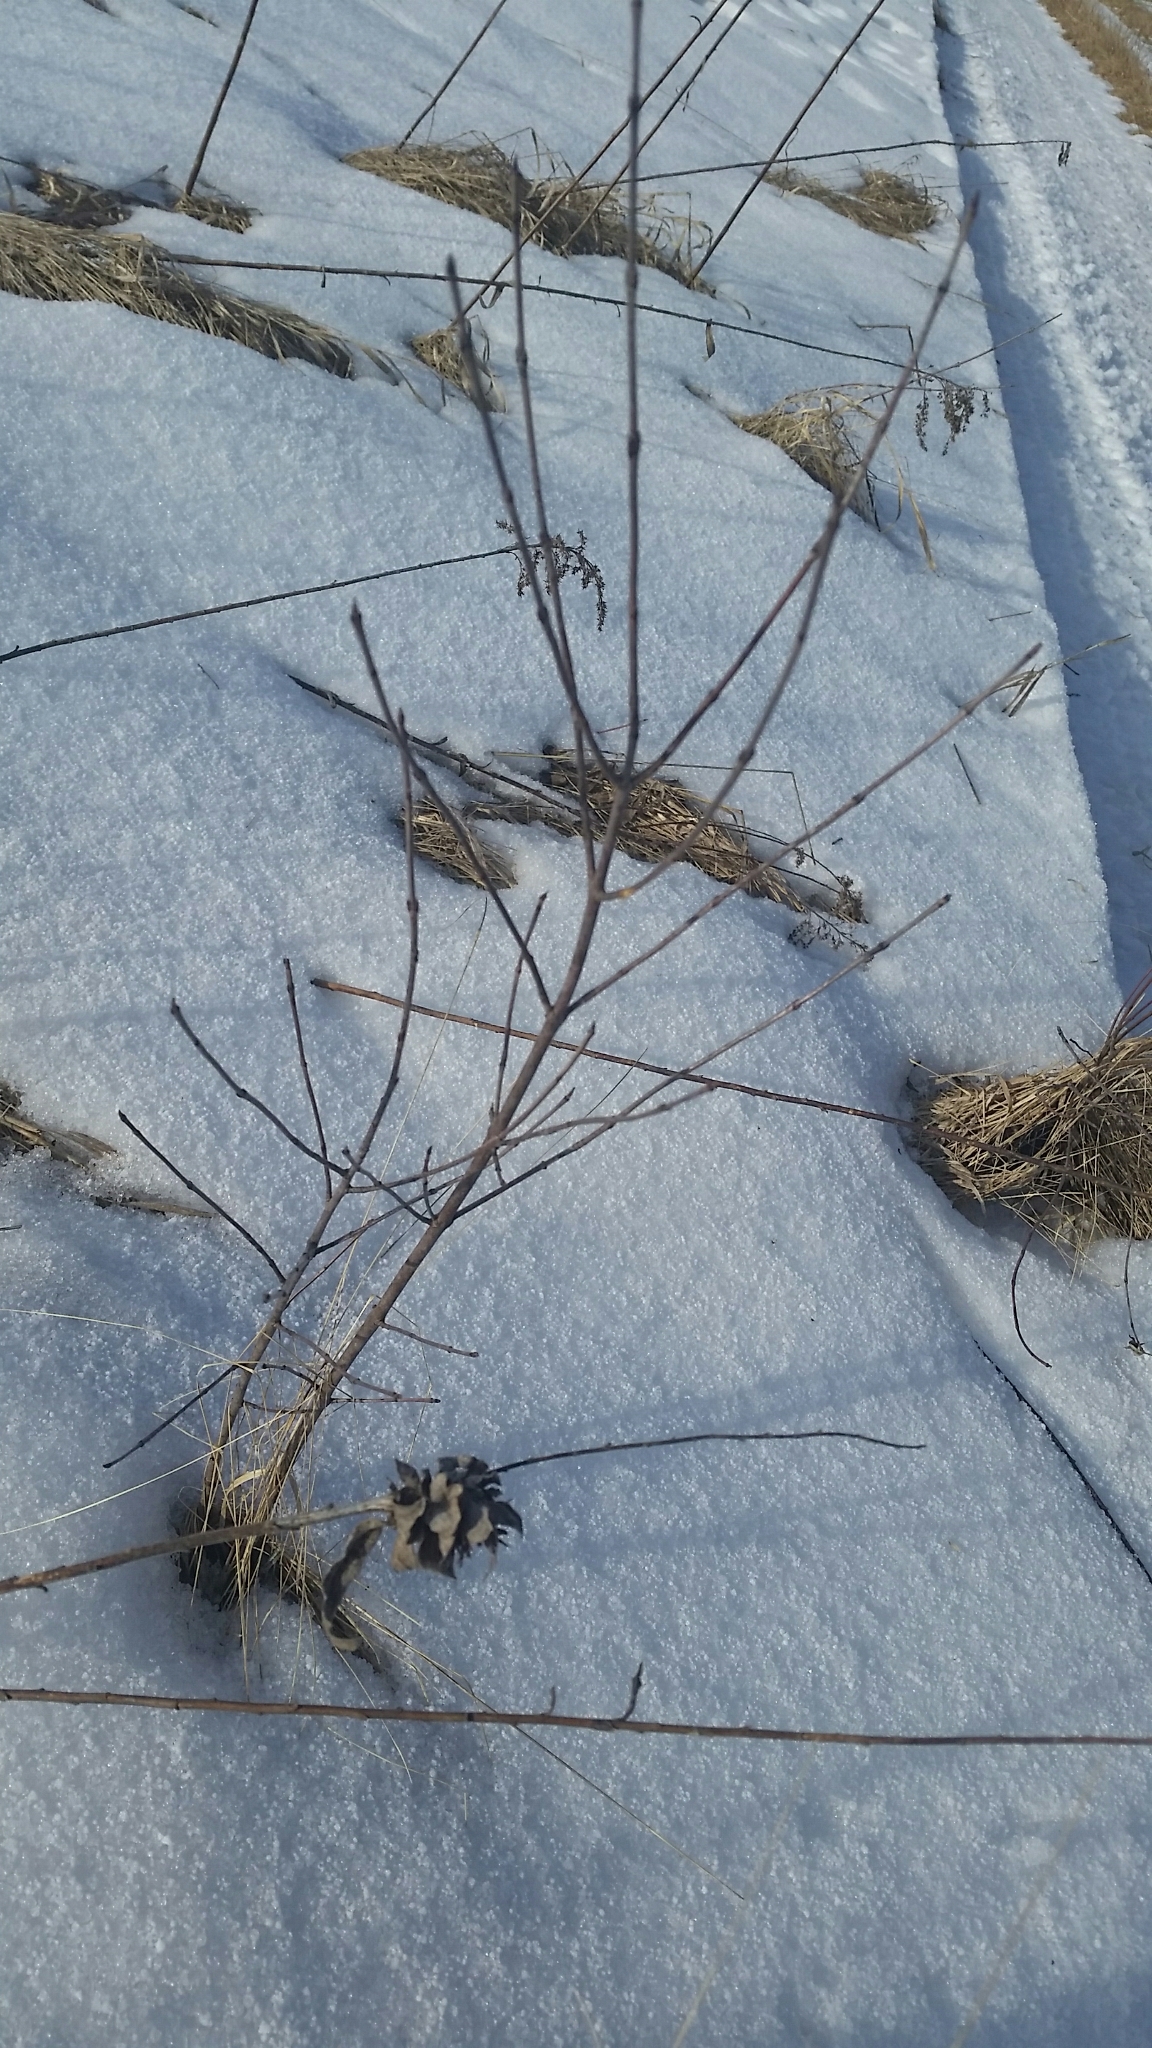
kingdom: Plantae
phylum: Tracheophyta
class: Magnoliopsida
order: Cornales
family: Cornaceae
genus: Cornus
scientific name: Cornus racemosa
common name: Panicled dogwood
